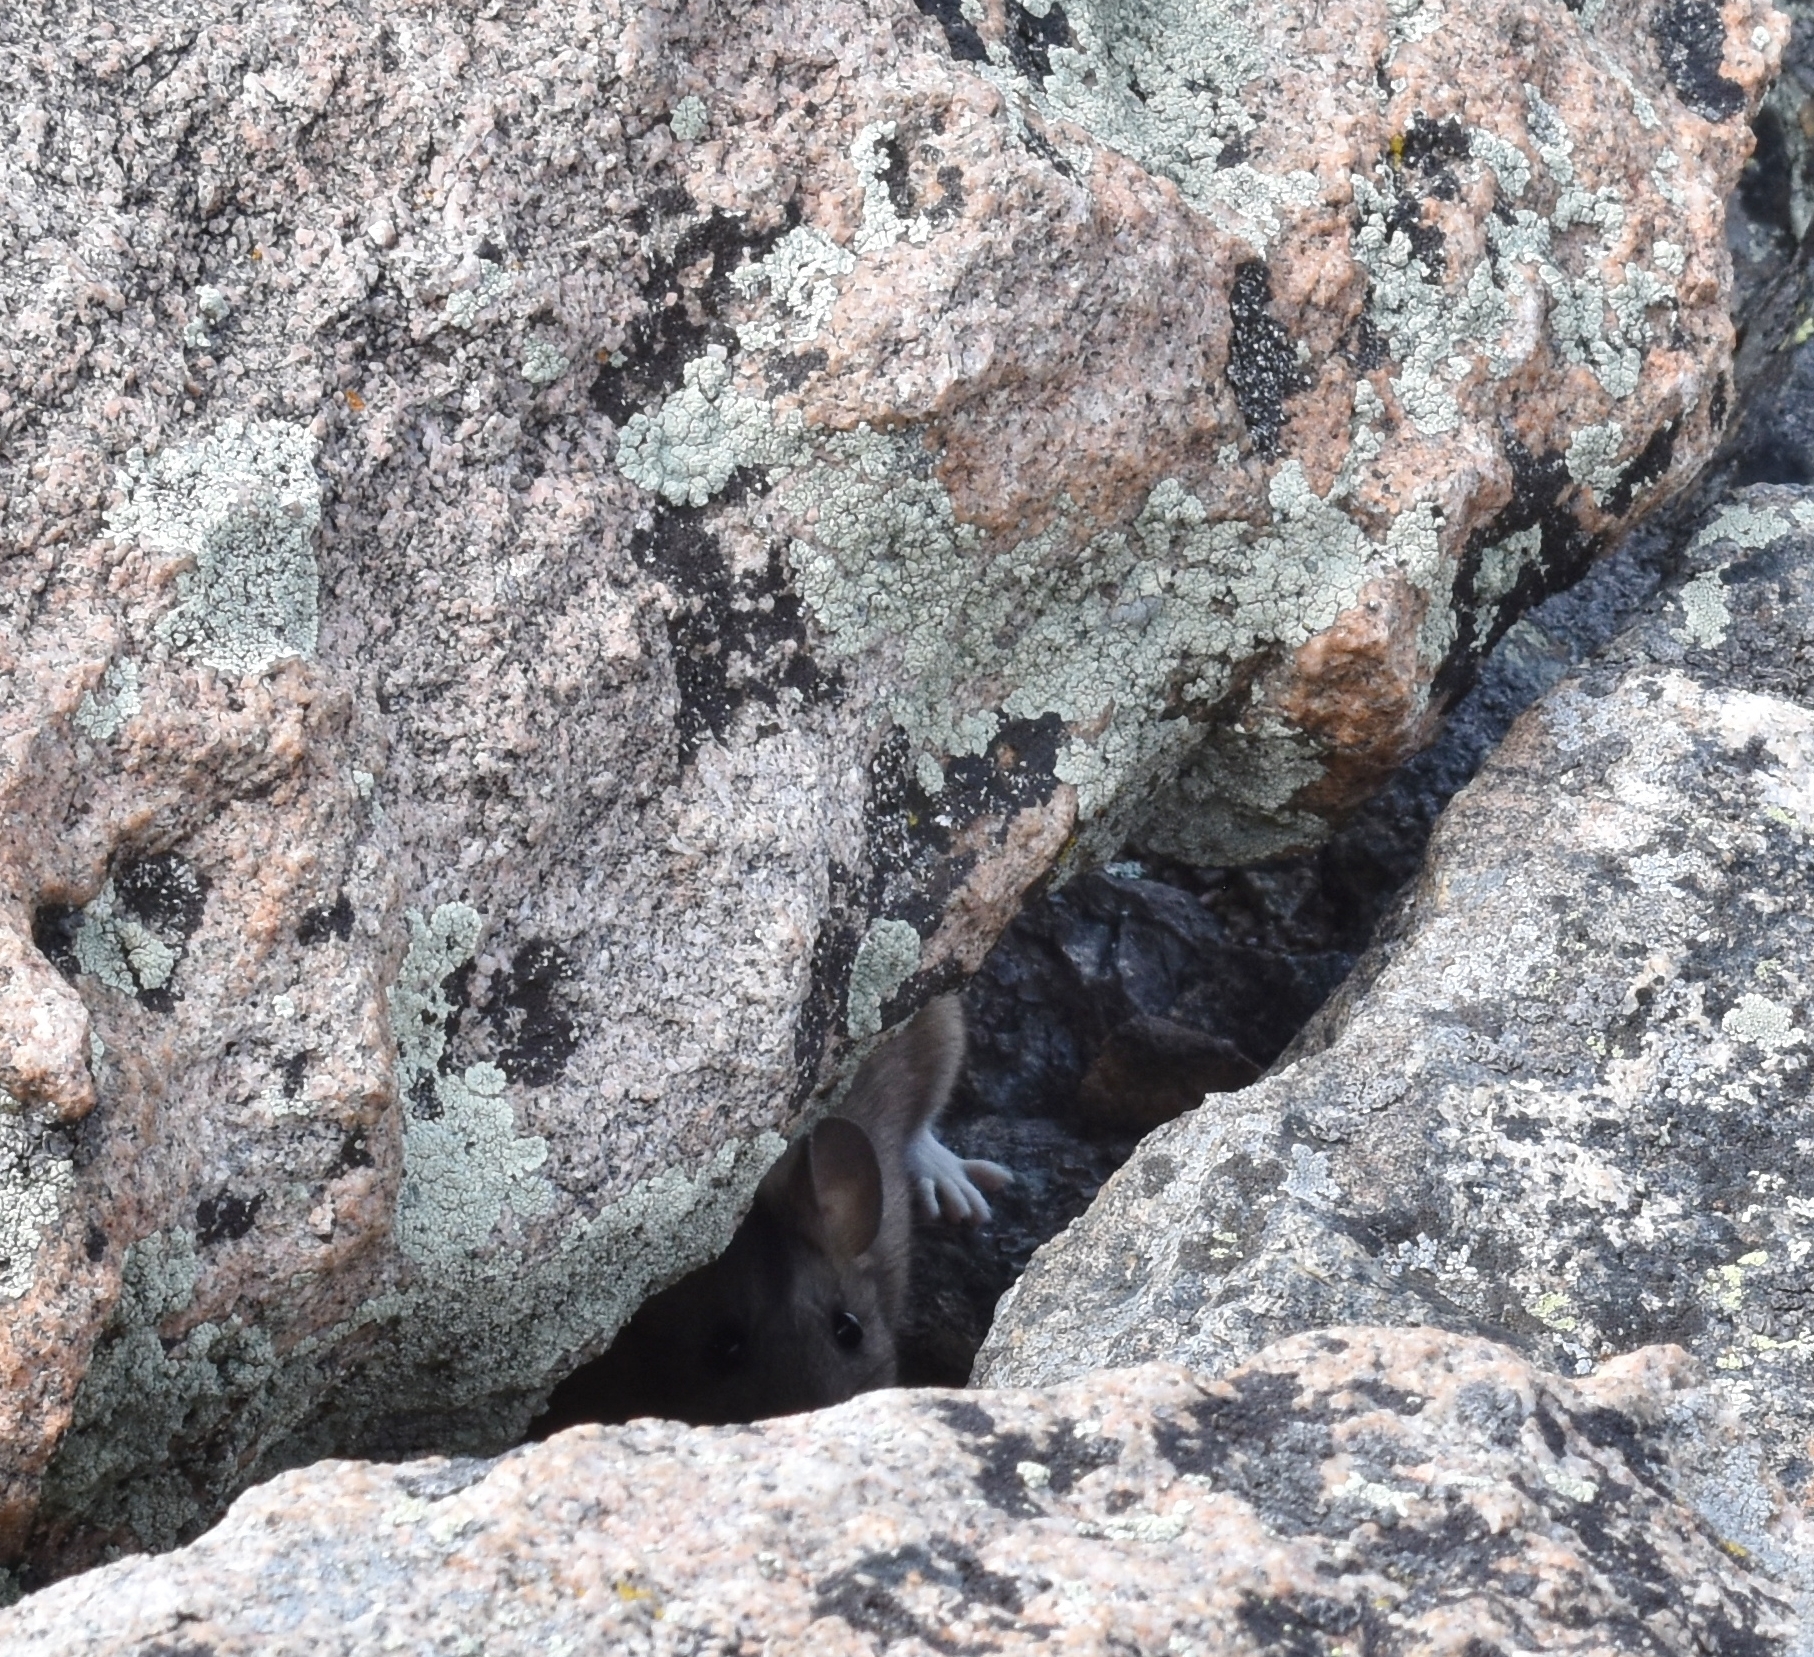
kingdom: Animalia
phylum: Chordata
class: Mammalia
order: Rodentia
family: Cricetidae
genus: Neotoma
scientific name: Neotoma cinerea
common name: Bushy-tailed woodrat
